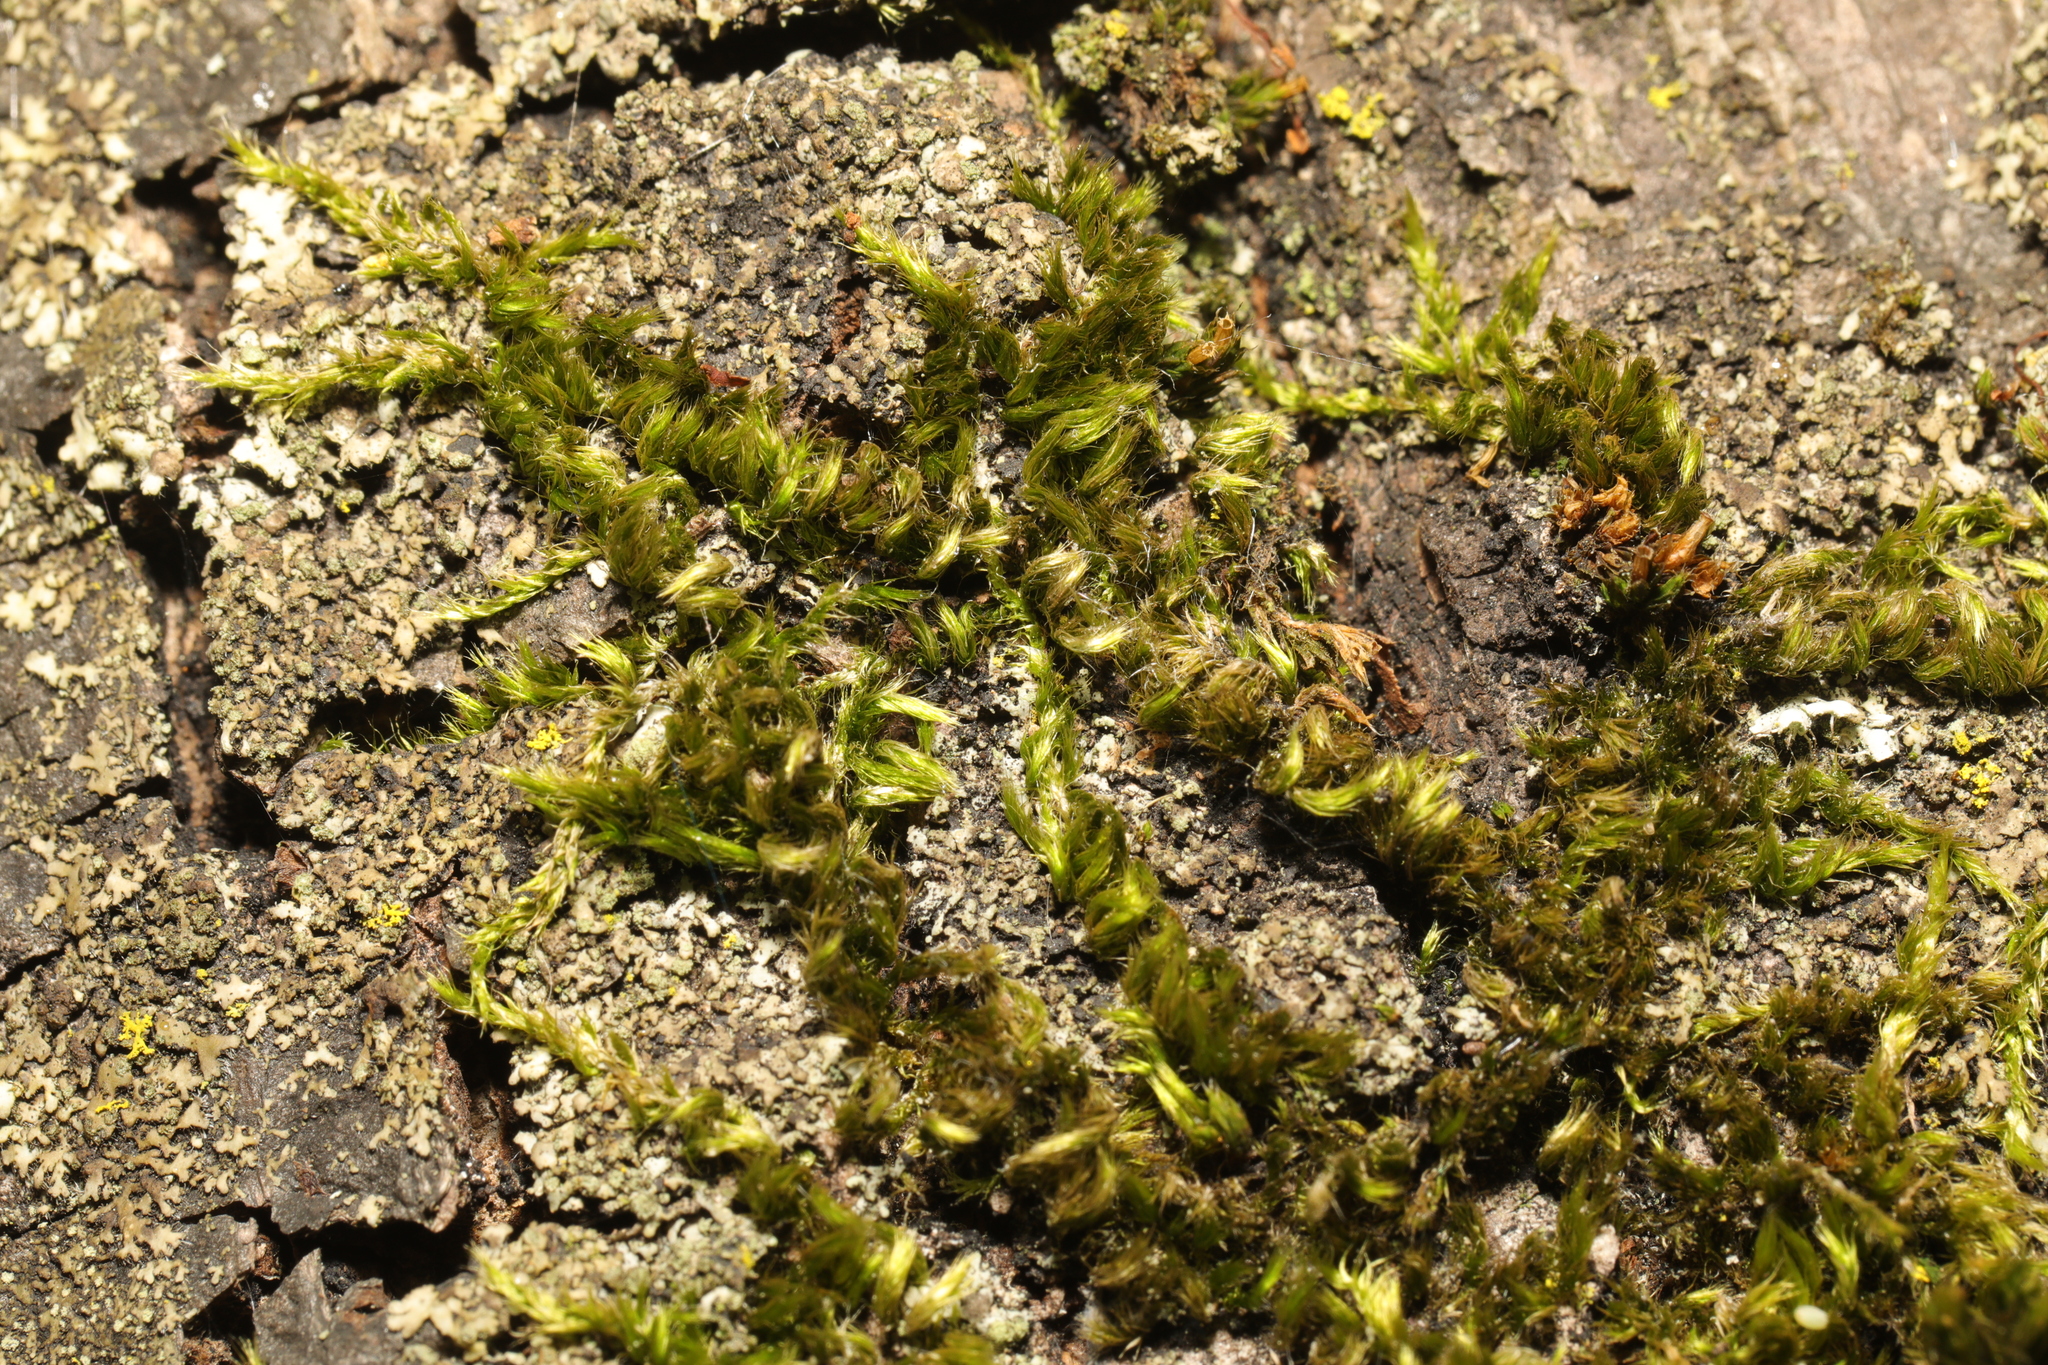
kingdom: Plantae
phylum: Bryophyta
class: Bryopsida
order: Hypnales
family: Brachytheciaceae
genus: Homalothecium
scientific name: Homalothecium sericeum
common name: Silky wall feather-moss
